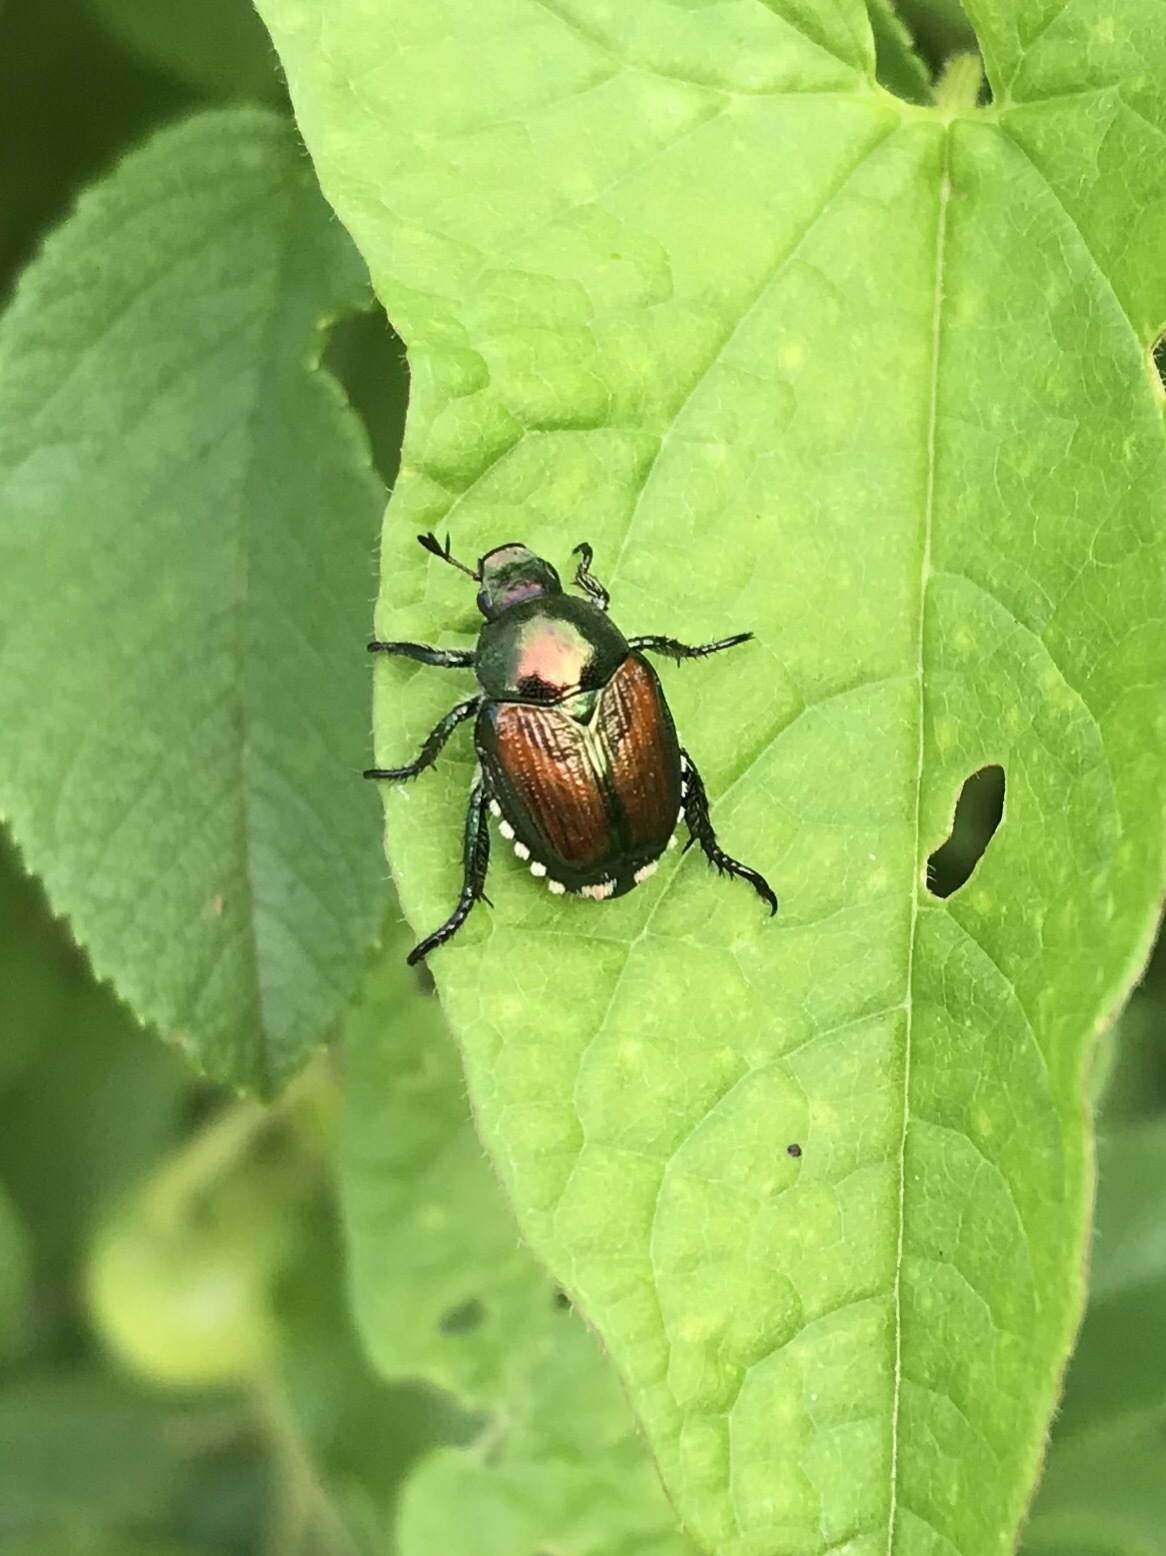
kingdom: Animalia
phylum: Arthropoda
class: Insecta
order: Coleoptera
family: Scarabaeidae
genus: Popillia
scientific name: Popillia japonica
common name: Japanese beetle
